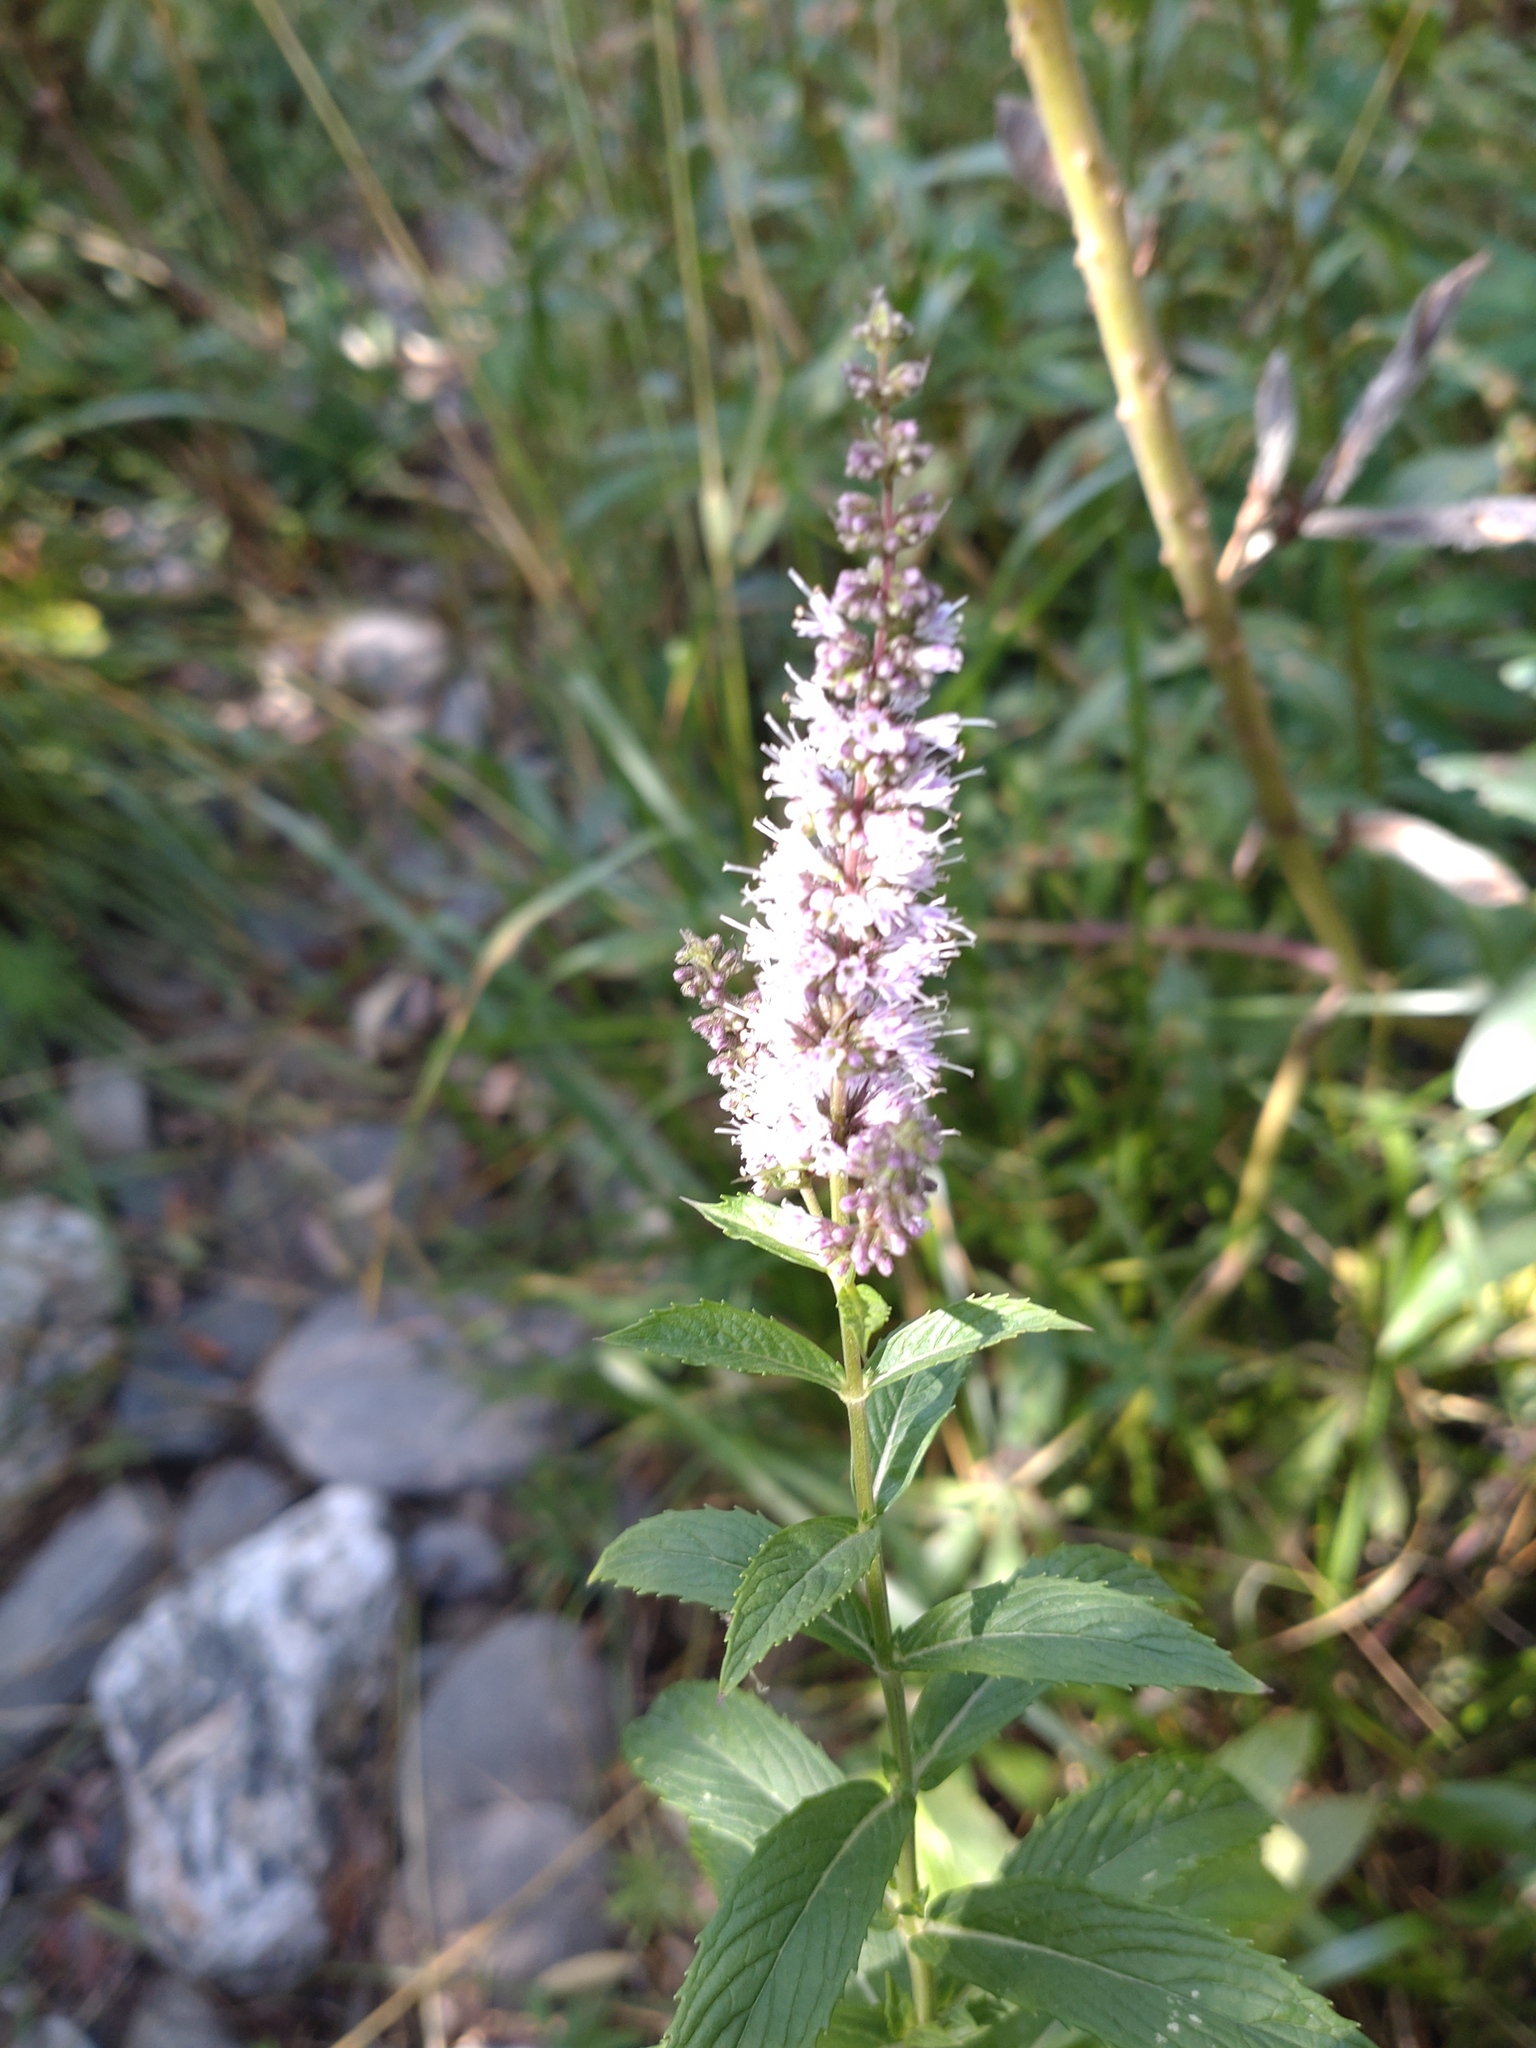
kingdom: Plantae
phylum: Tracheophyta
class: Magnoliopsida
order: Lamiales
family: Lamiaceae
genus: Mentha
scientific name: Mentha spicata
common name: Spearmint
